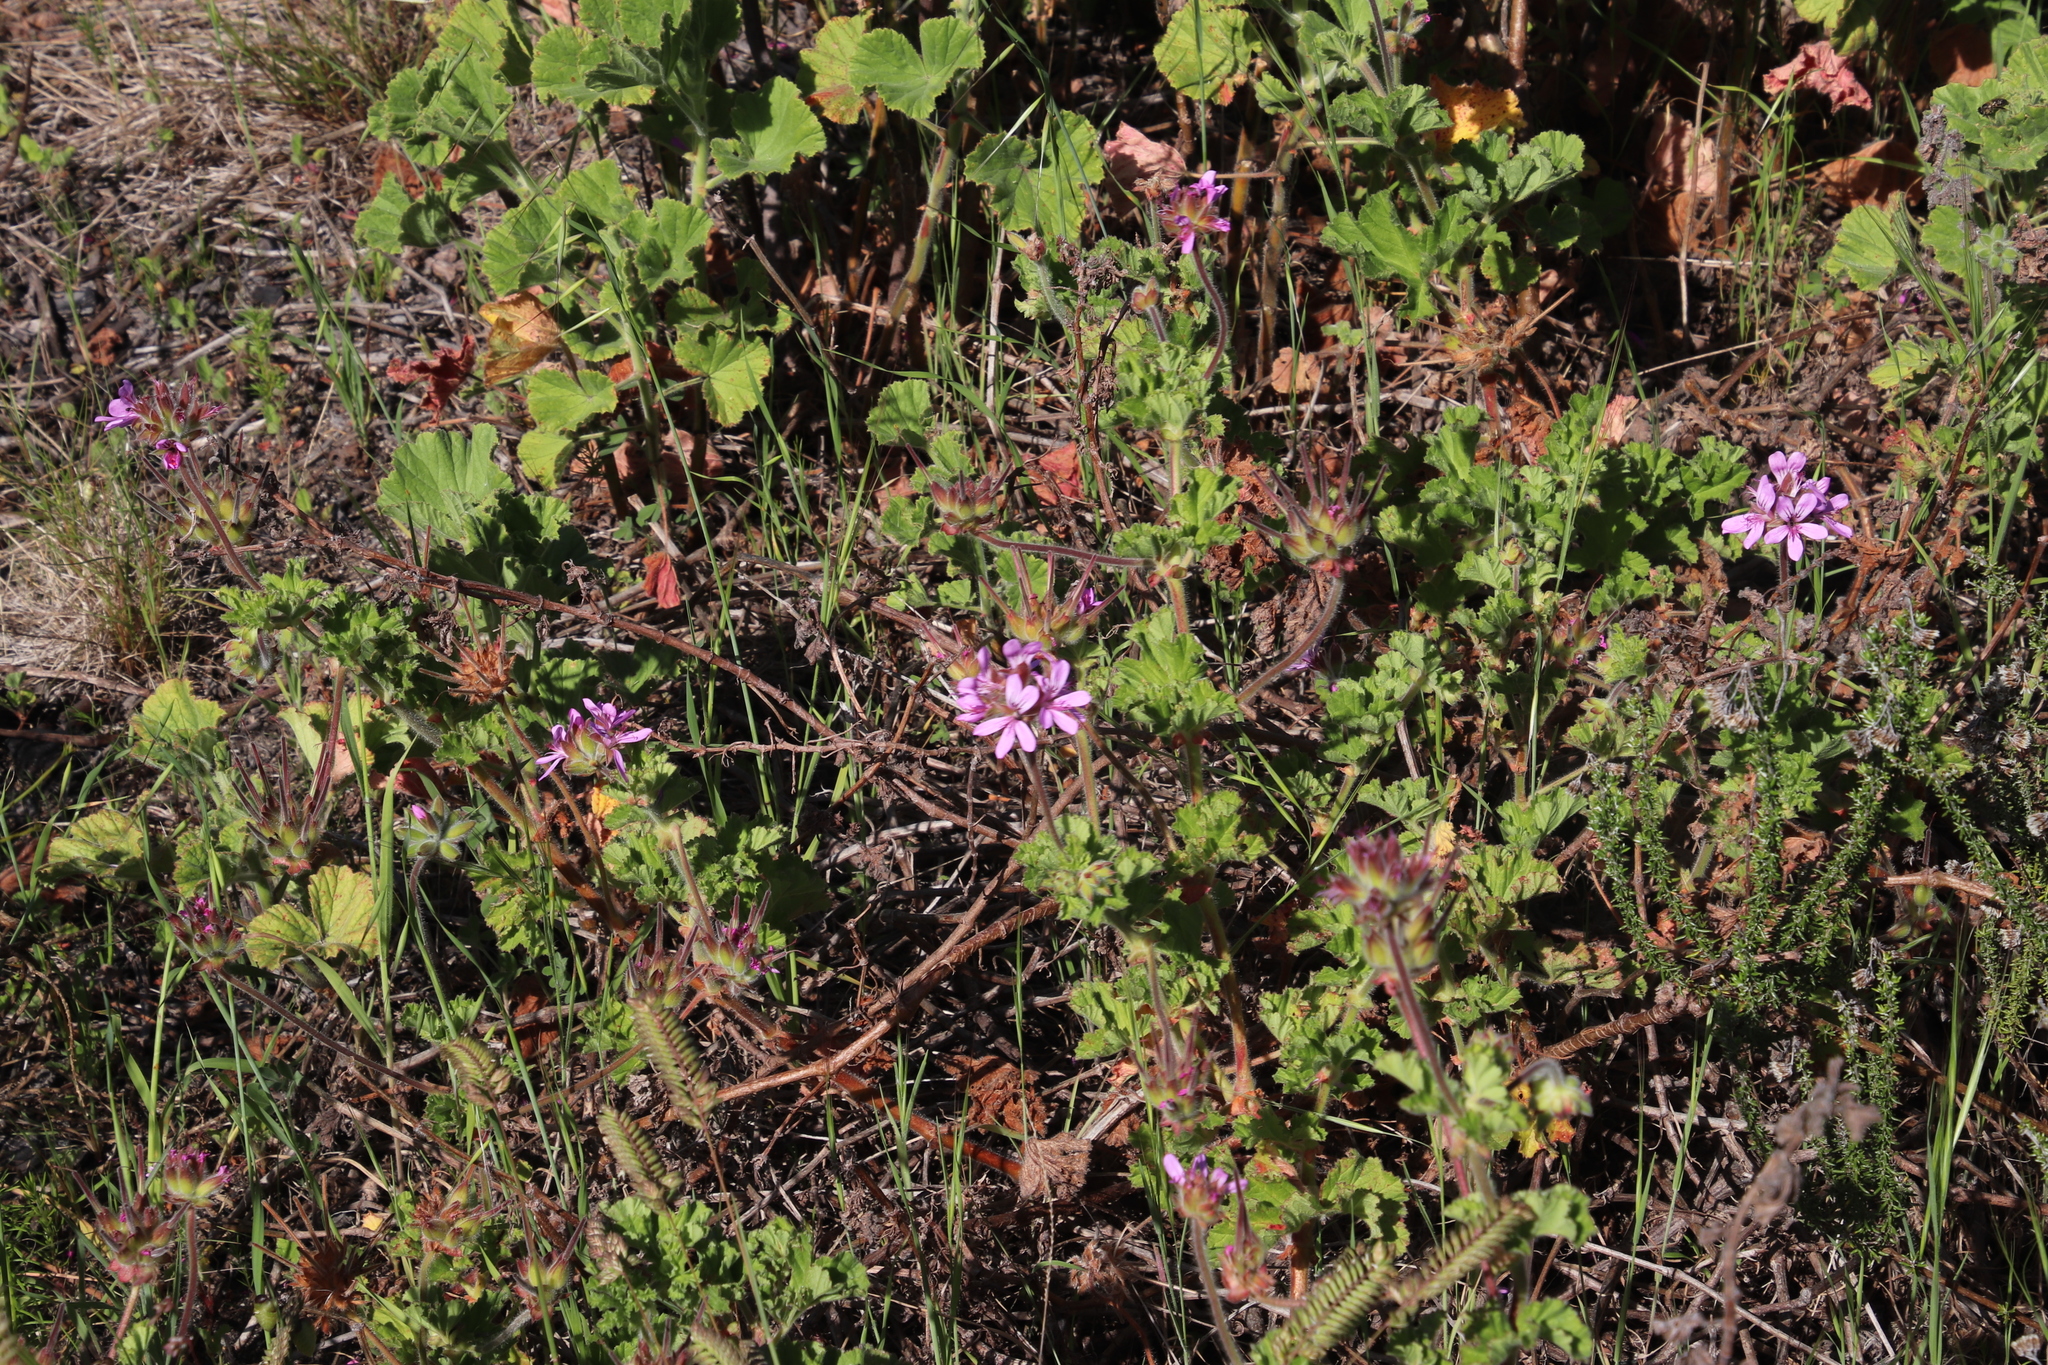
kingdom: Plantae
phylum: Tracheophyta
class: Magnoliopsida
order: Geraniales
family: Geraniaceae
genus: Pelargonium
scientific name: Pelargonium capitatum
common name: Rose scented geranium
